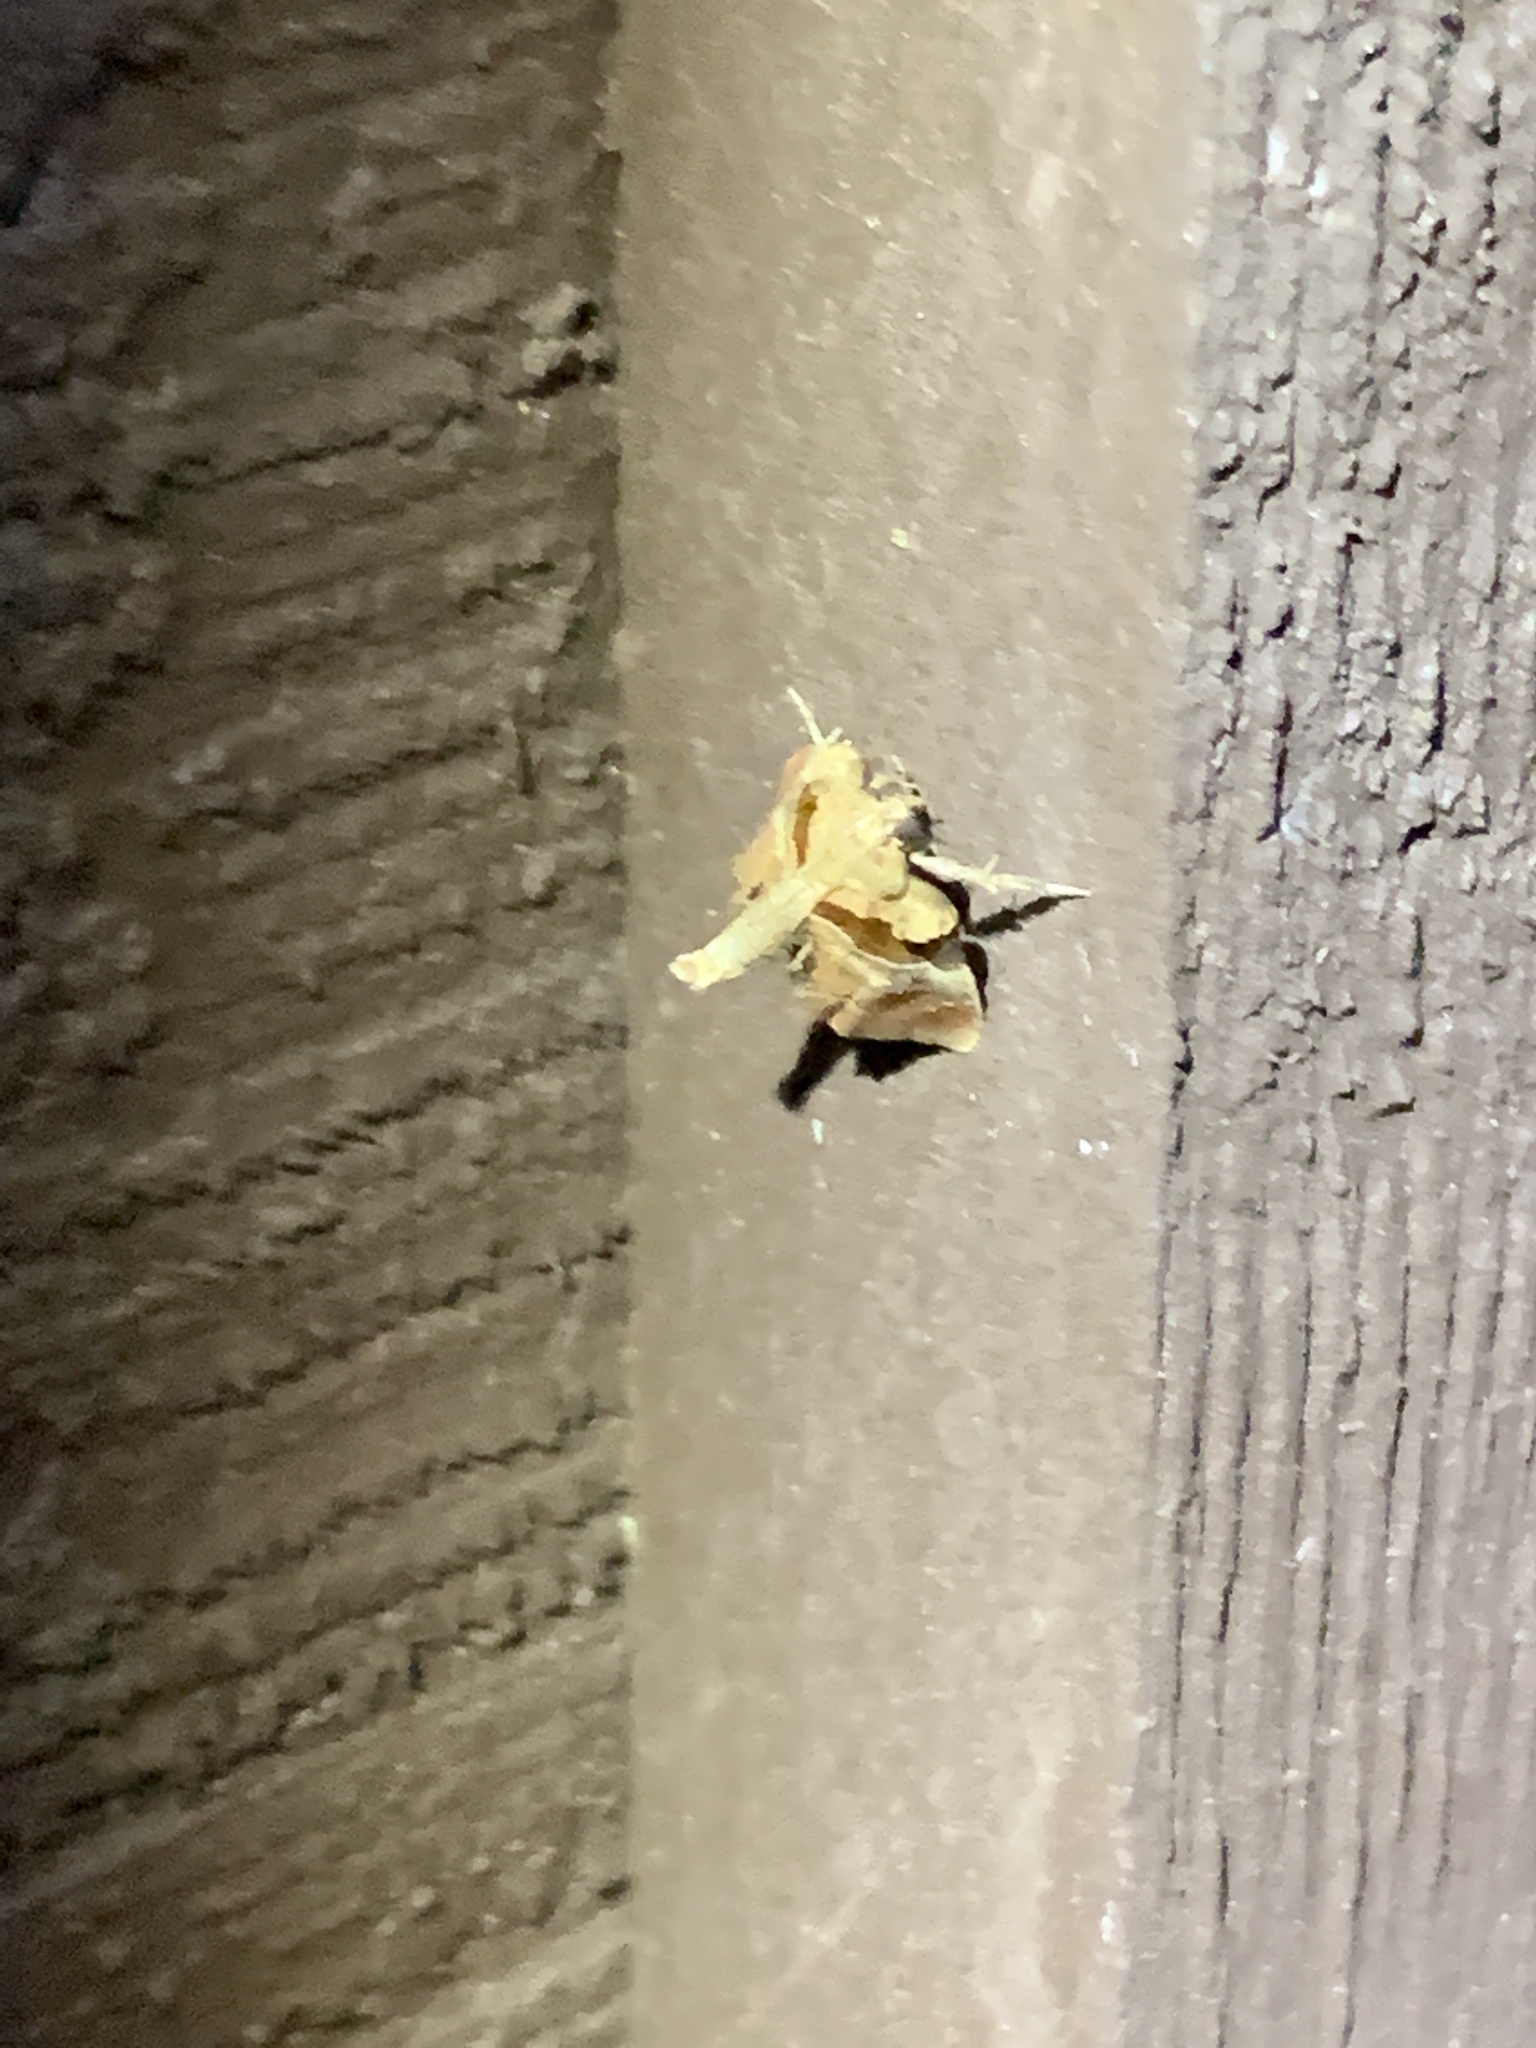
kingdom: Animalia
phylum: Arthropoda
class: Insecta
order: Lepidoptera
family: Pyralidae
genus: Tosale
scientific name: Tosale oviplagalis
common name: Dimorphic tosale moth
